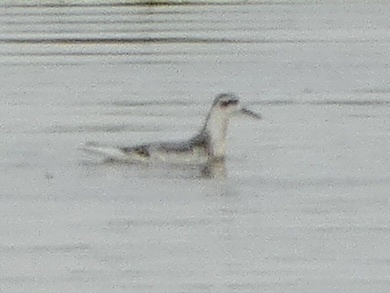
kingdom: Animalia
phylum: Chordata
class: Aves
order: Charadriiformes
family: Scolopacidae
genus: Phalaropus
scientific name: Phalaropus fulicarius
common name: Red phalarope
